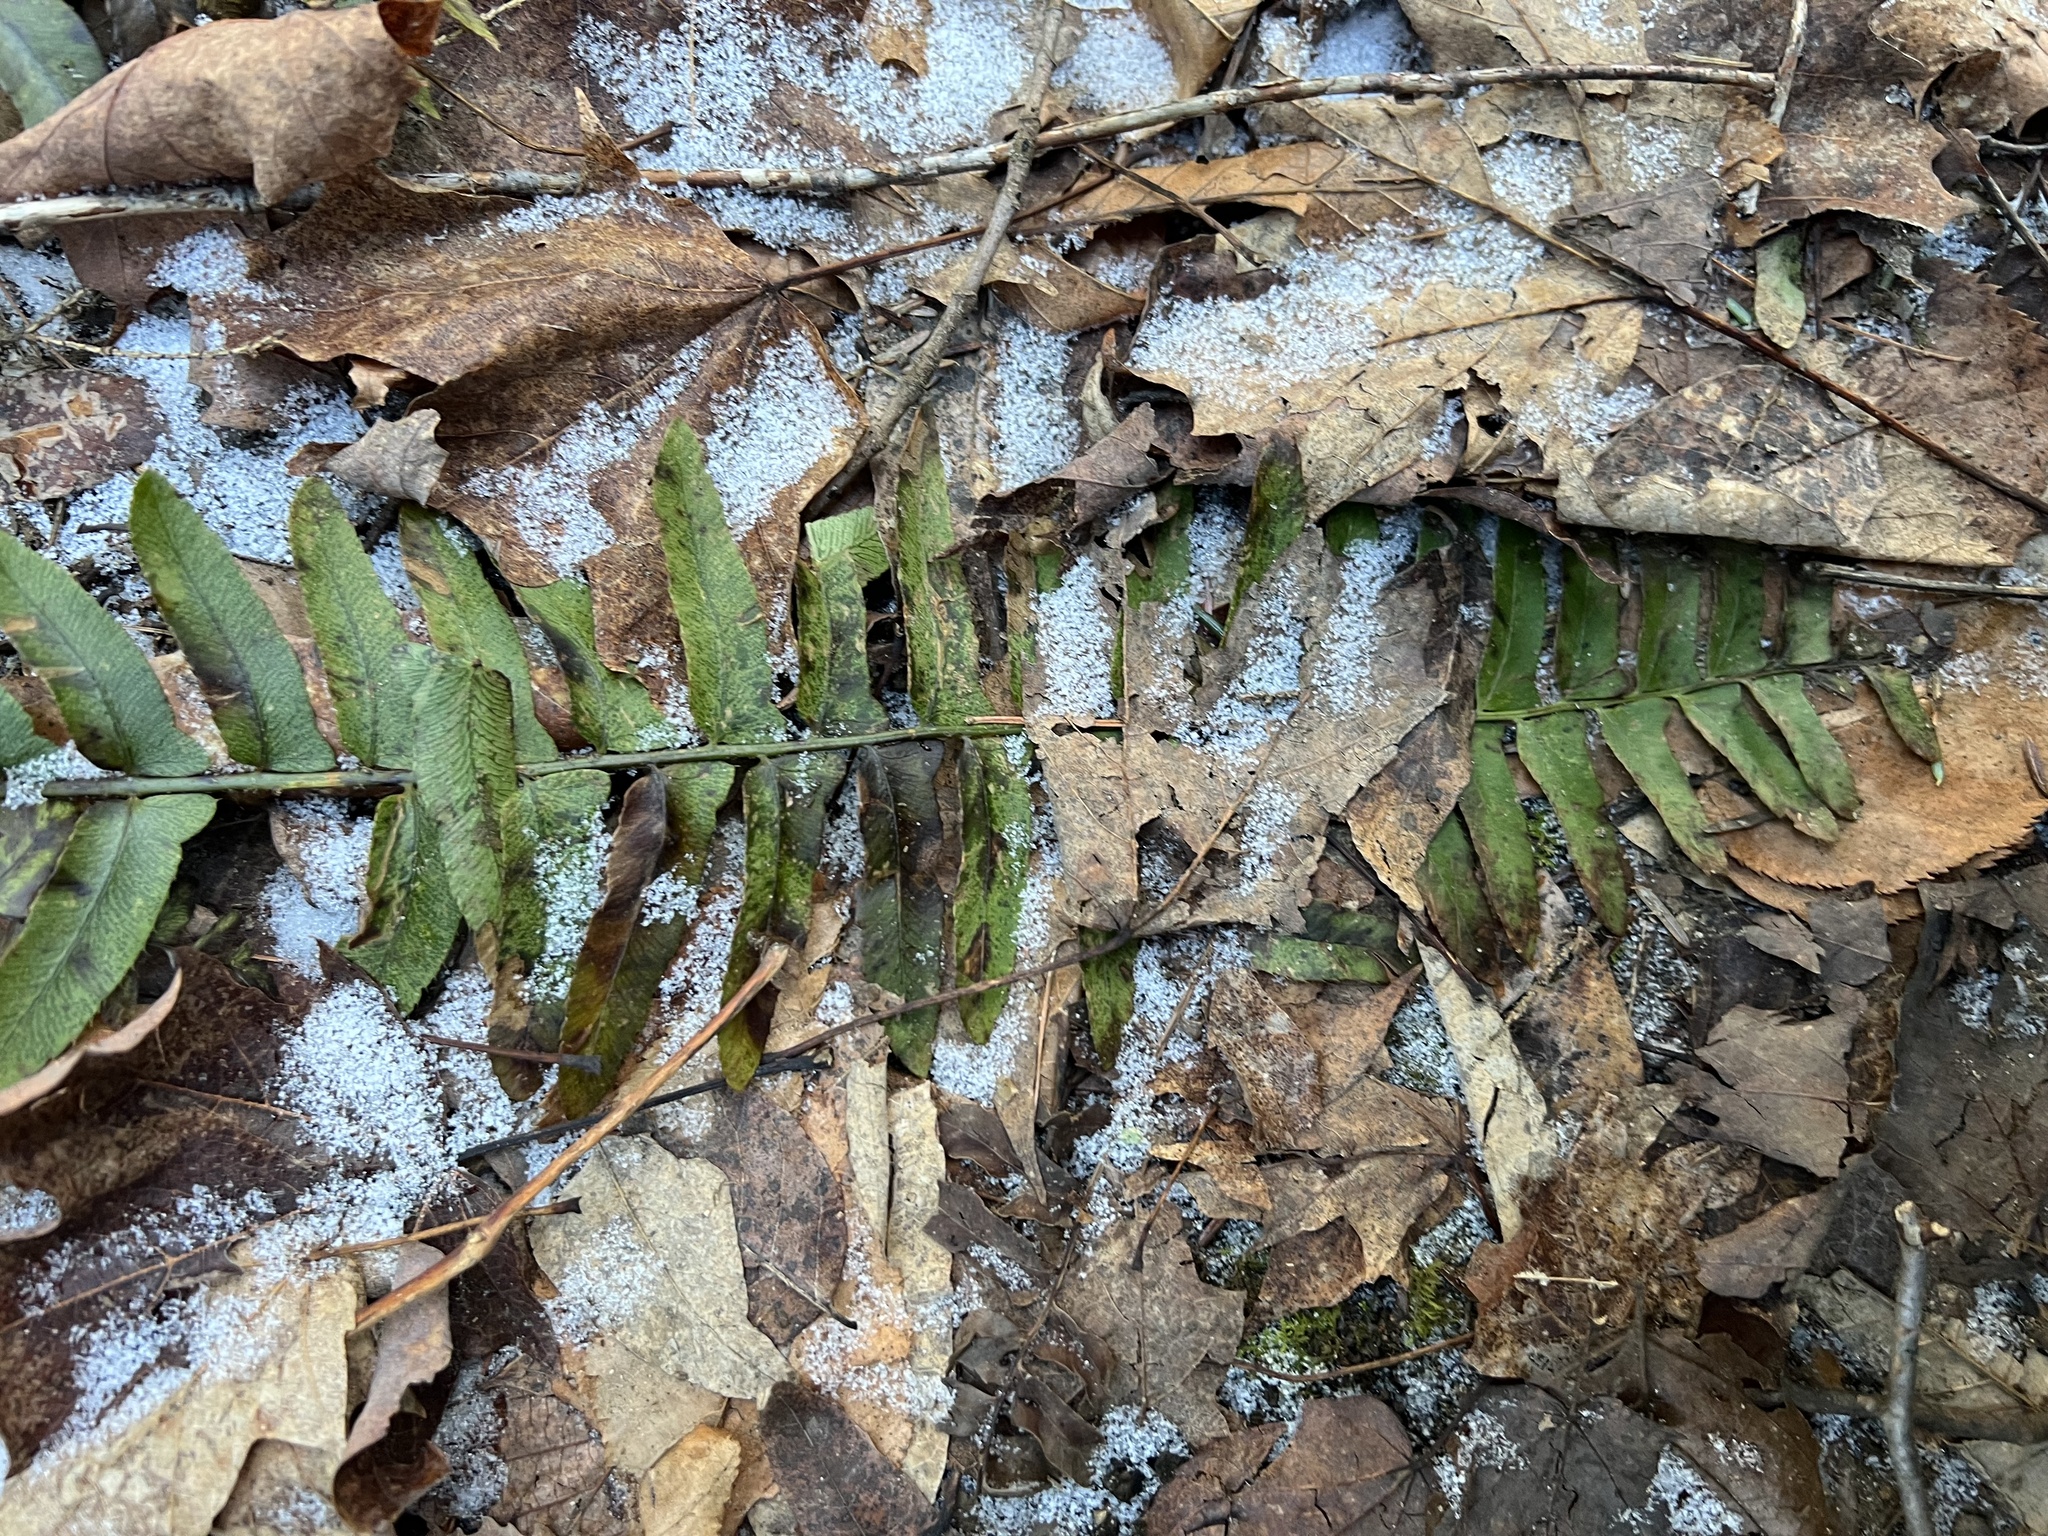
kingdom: Plantae
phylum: Tracheophyta
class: Polypodiopsida
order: Polypodiales
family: Dryopteridaceae
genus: Polystichum
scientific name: Polystichum acrostichoides
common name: Christmas fern
